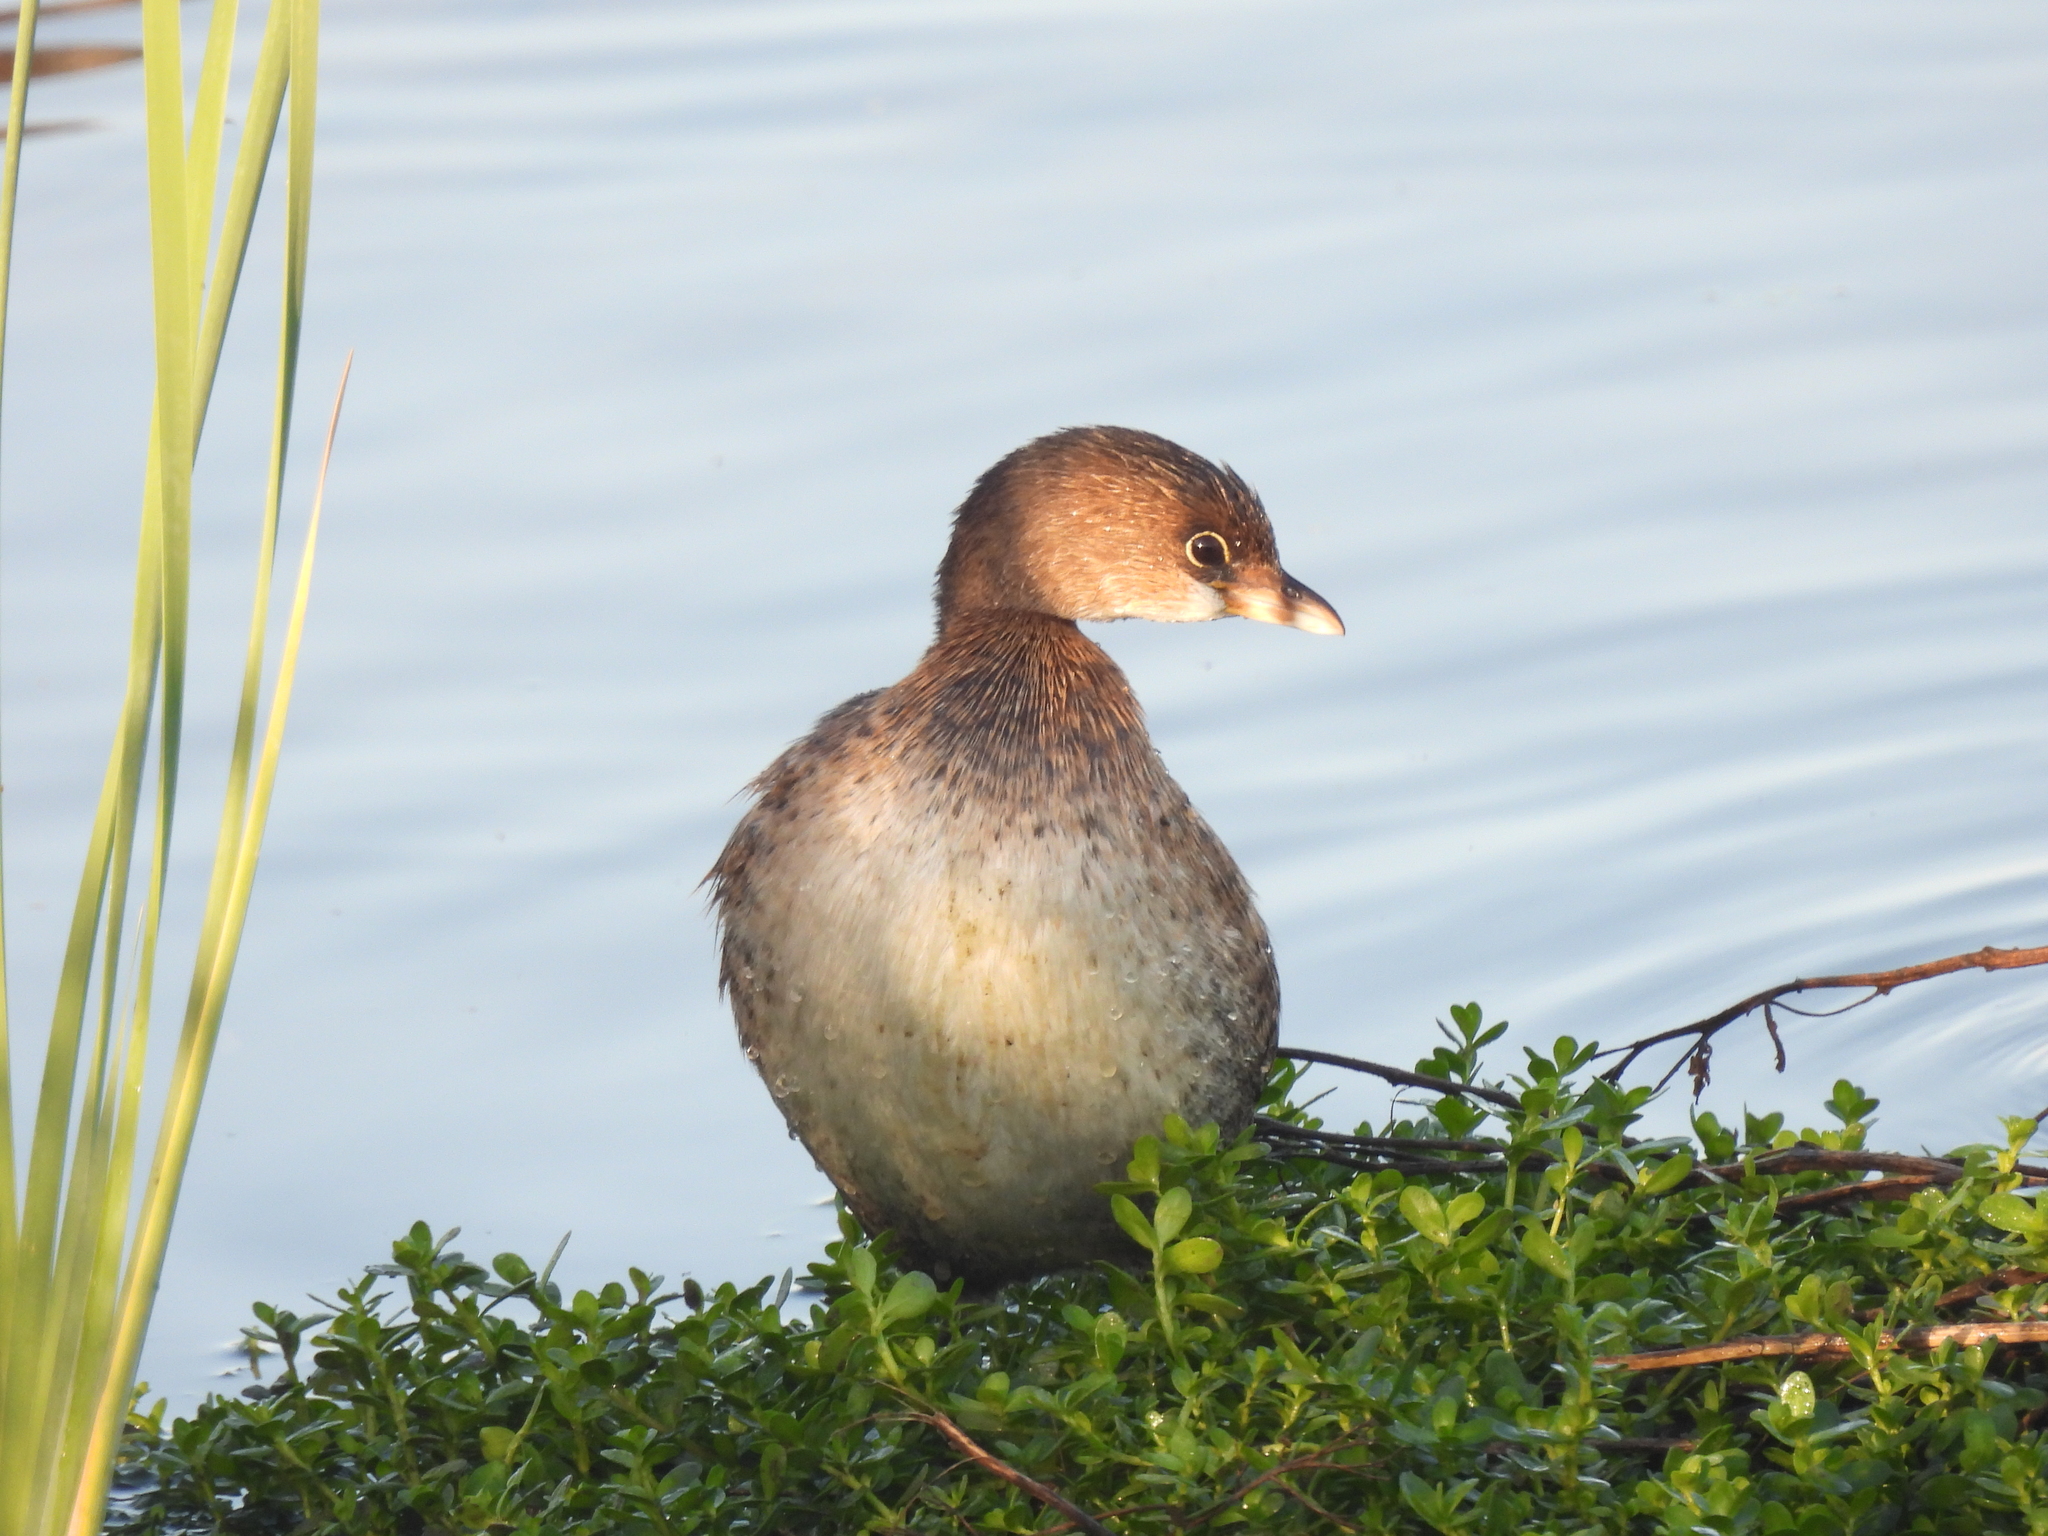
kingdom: Animalia
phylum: Chordata
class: Aves
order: Podicipediformes
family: Podicipedidae
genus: Podilymbus
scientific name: Podilymbus podiceps
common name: Pied-billed grebe
